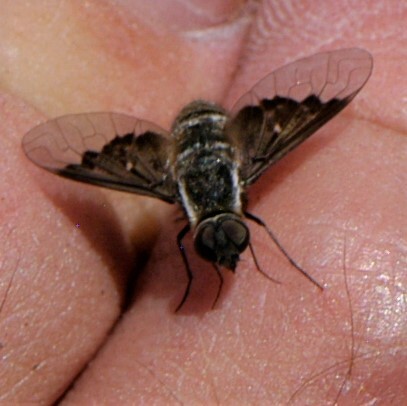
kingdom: Animalia
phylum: Arthropoda
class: Insecta
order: Diptera
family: Bombyliidae
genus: Hemipenthes
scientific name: Hemipenthes
